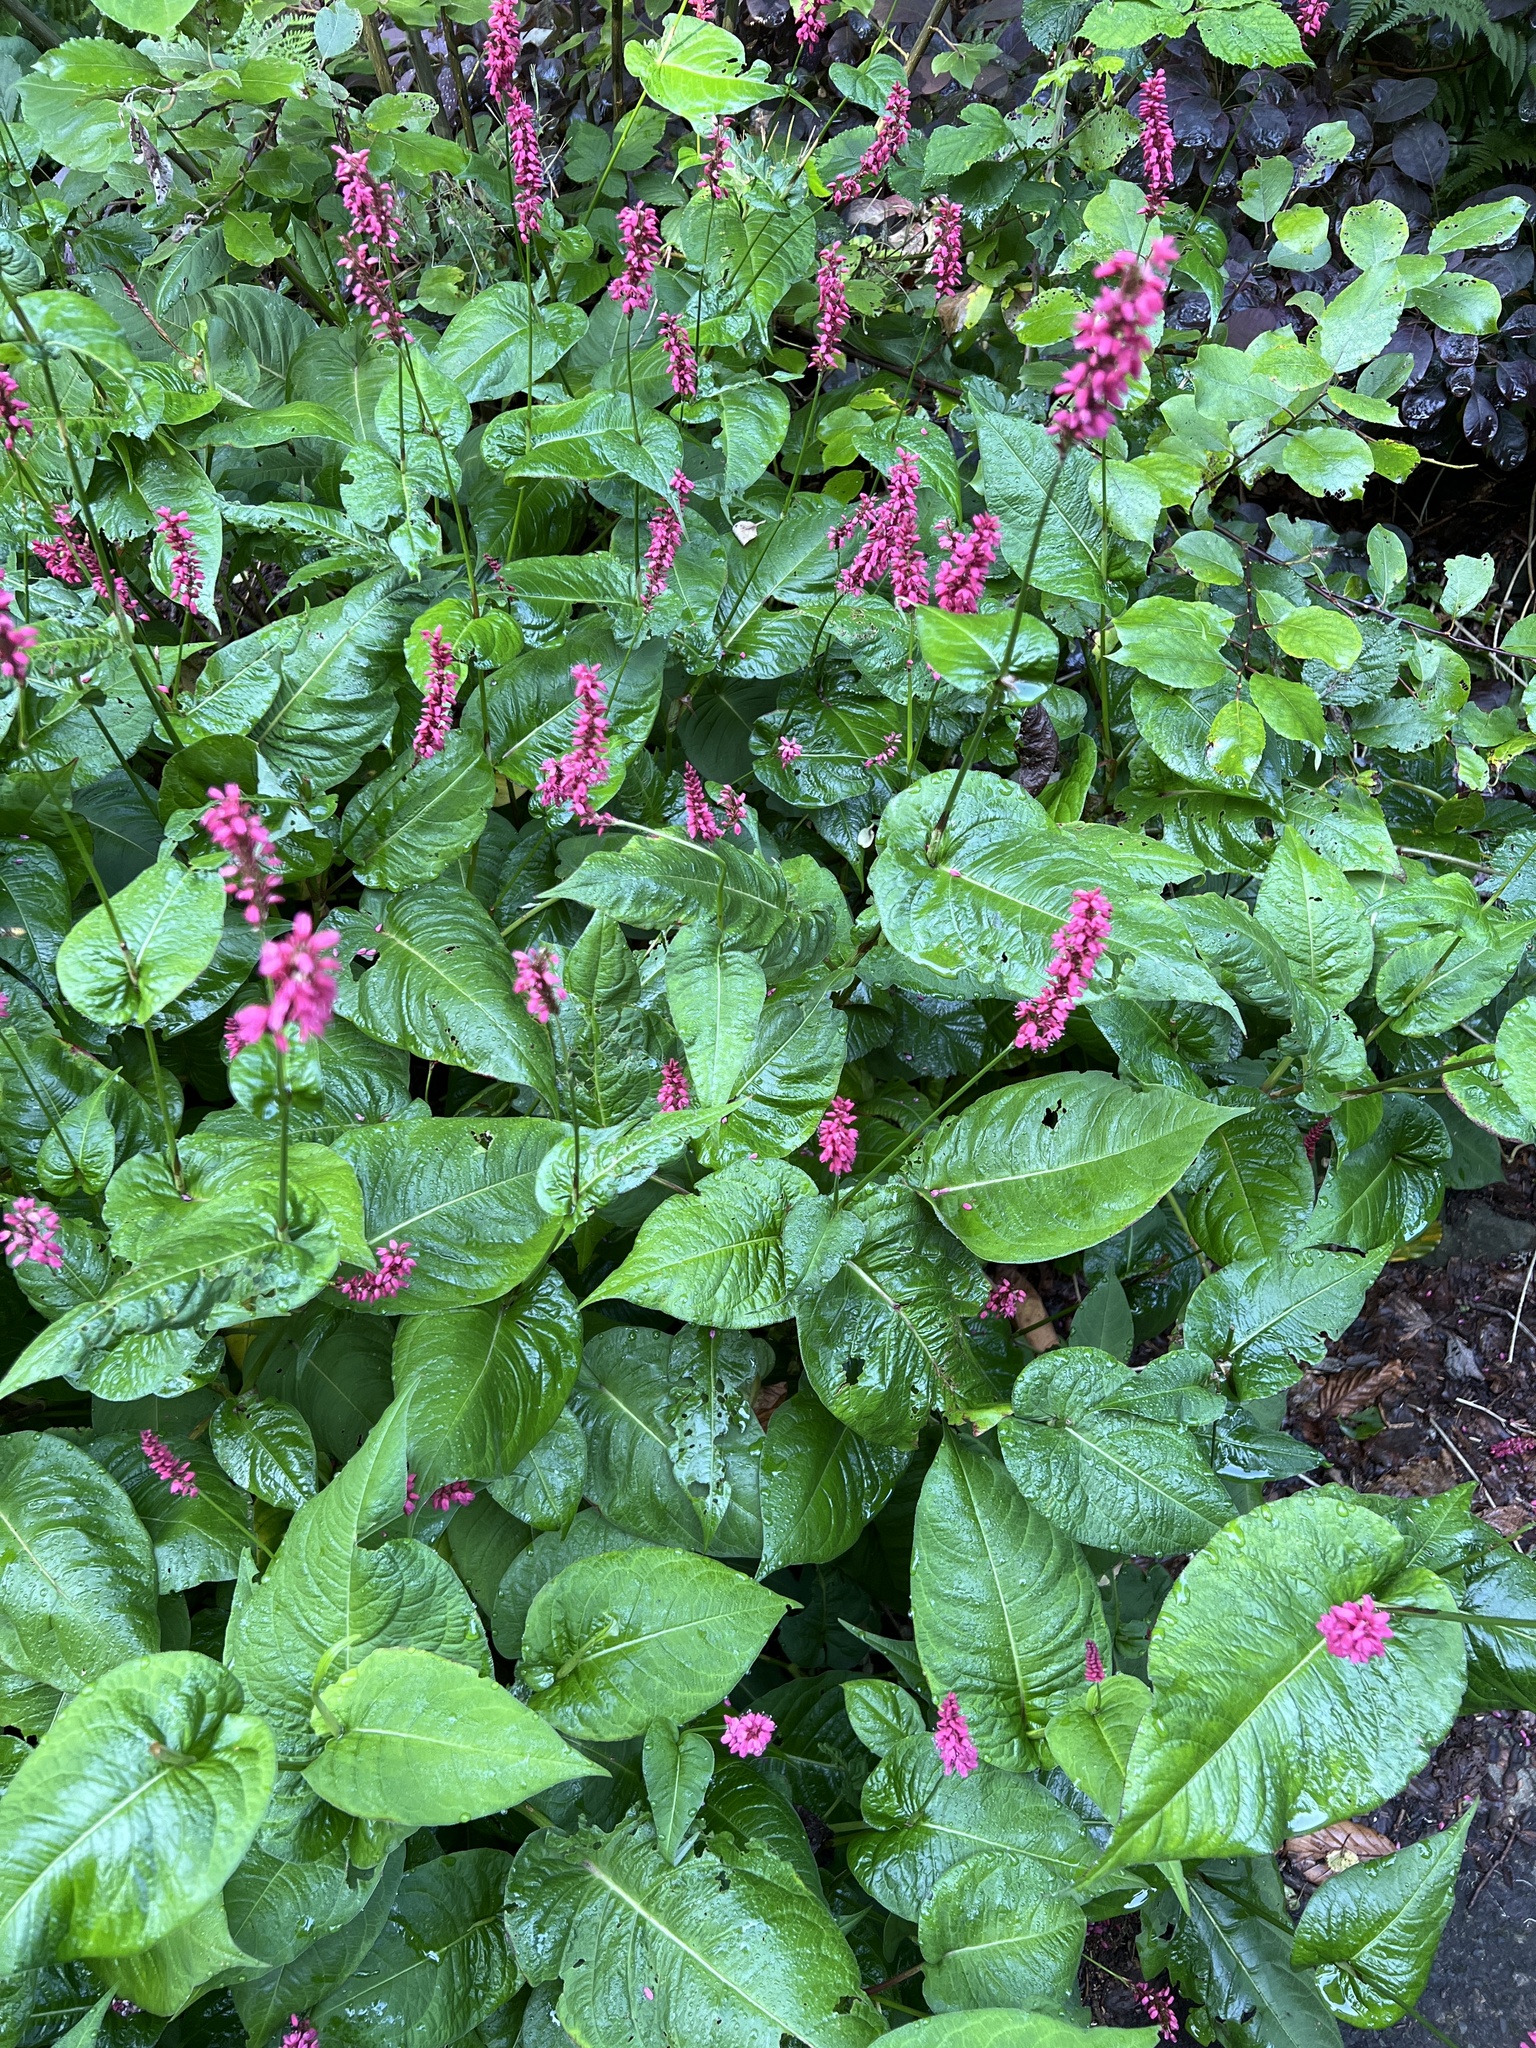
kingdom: Plantae
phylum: Tracheophyta
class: Magnoliopsida
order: Caryophyllales
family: Polygonaceae
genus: Bistorta
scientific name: Bistorta amplexicaulis
